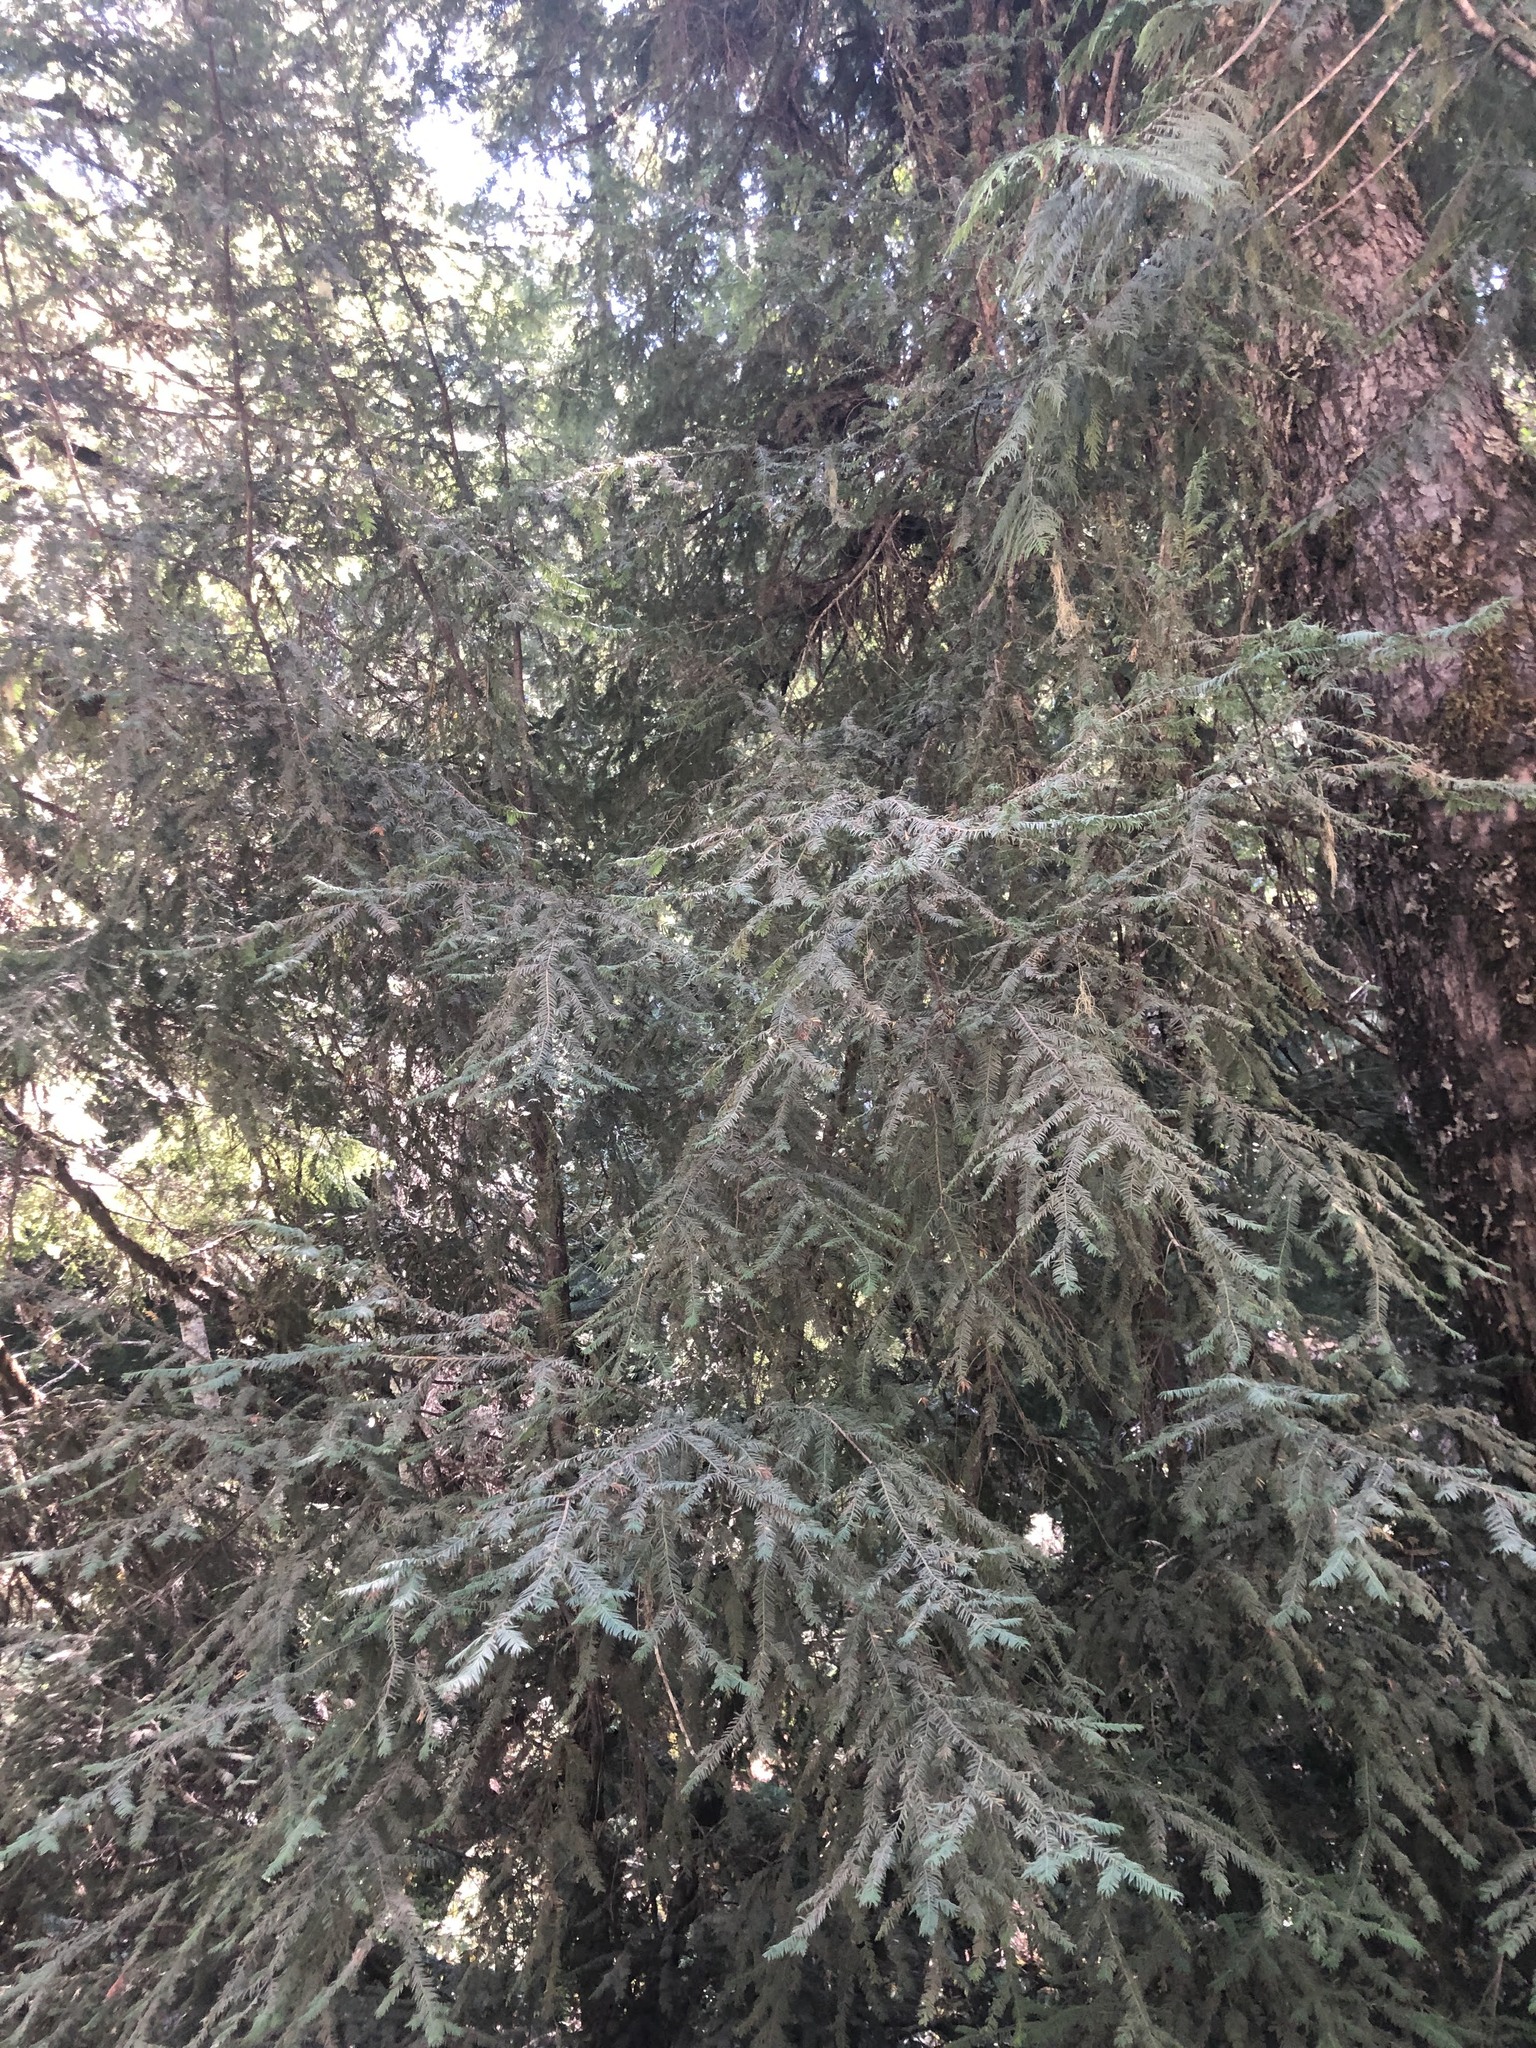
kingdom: Plantae
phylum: Tracheophyta
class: Pinopsida
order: Pinales
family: Taxaceae
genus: Taxus
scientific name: Taxus brevifolia
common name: Pacific yew
